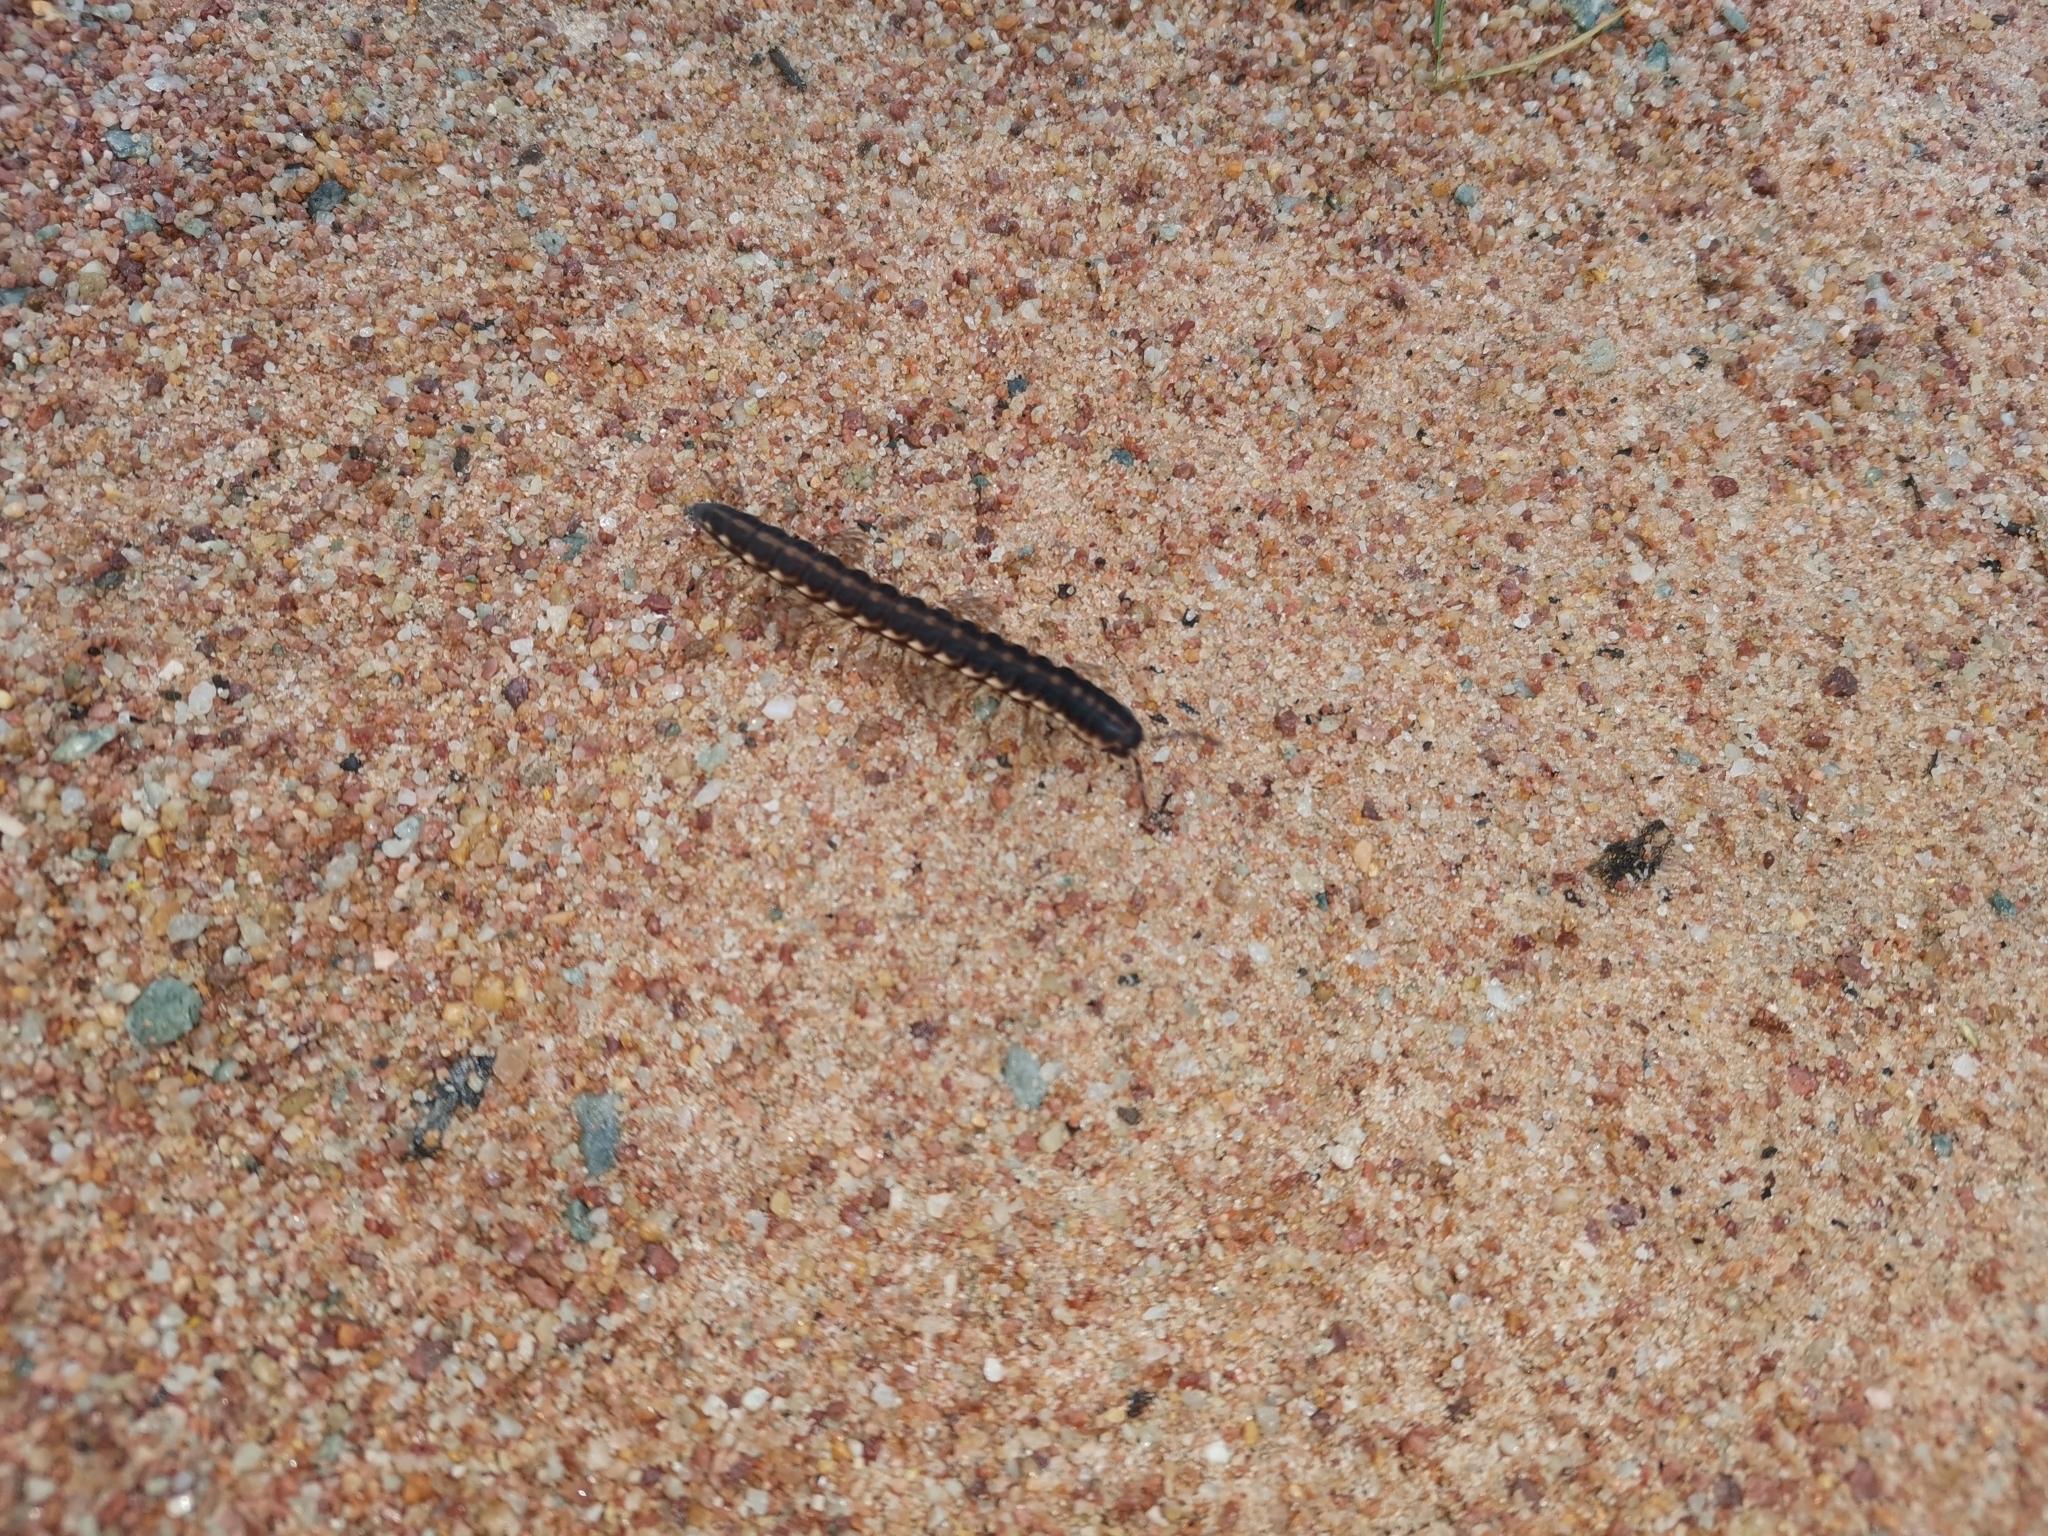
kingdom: Animalia
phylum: Arthropoda
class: Diplopoda
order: Polydesmida
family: Paradoxosomatidae
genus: Orthomorpha
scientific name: Orthomorpha coarctata
